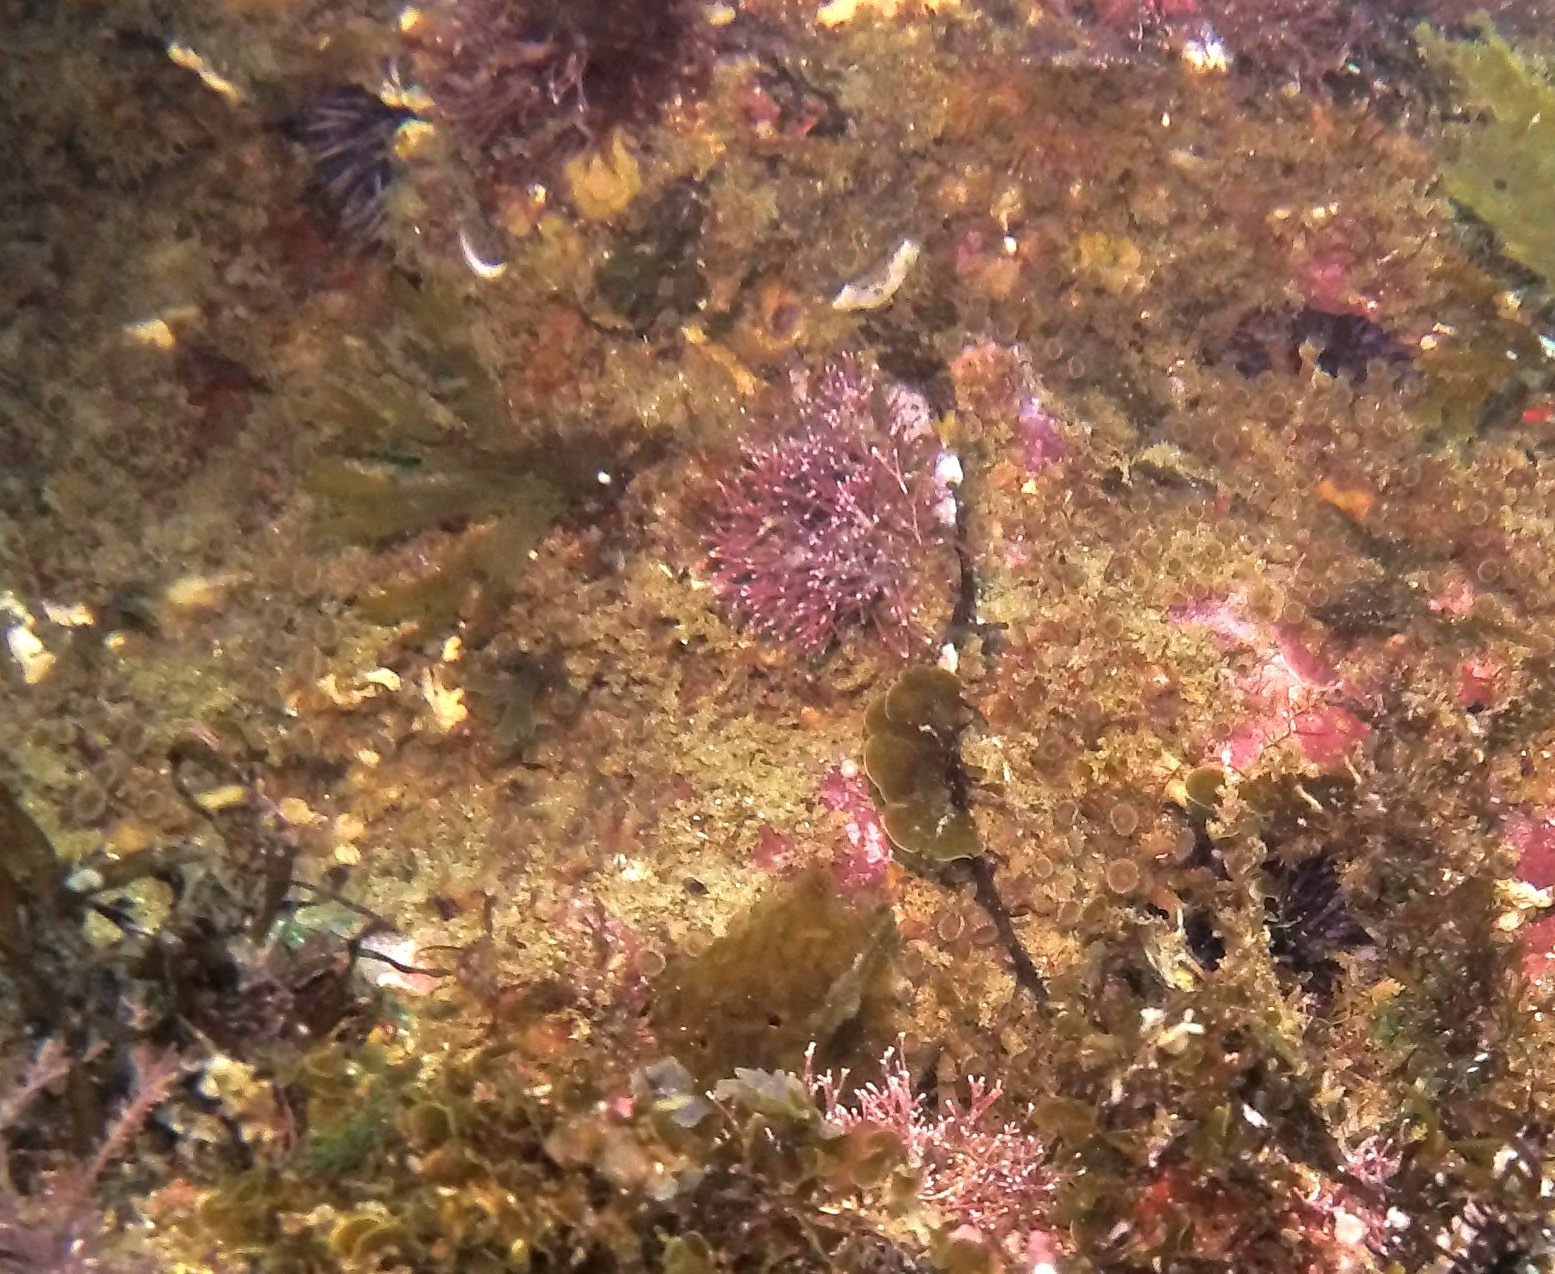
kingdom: Animalia
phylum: Cnidaria
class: Anthozoa
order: Zoantharia
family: Epizoanthidae
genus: Epizoanthus
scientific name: Epizoanthus leptoderma
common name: Elongate zoanthid
